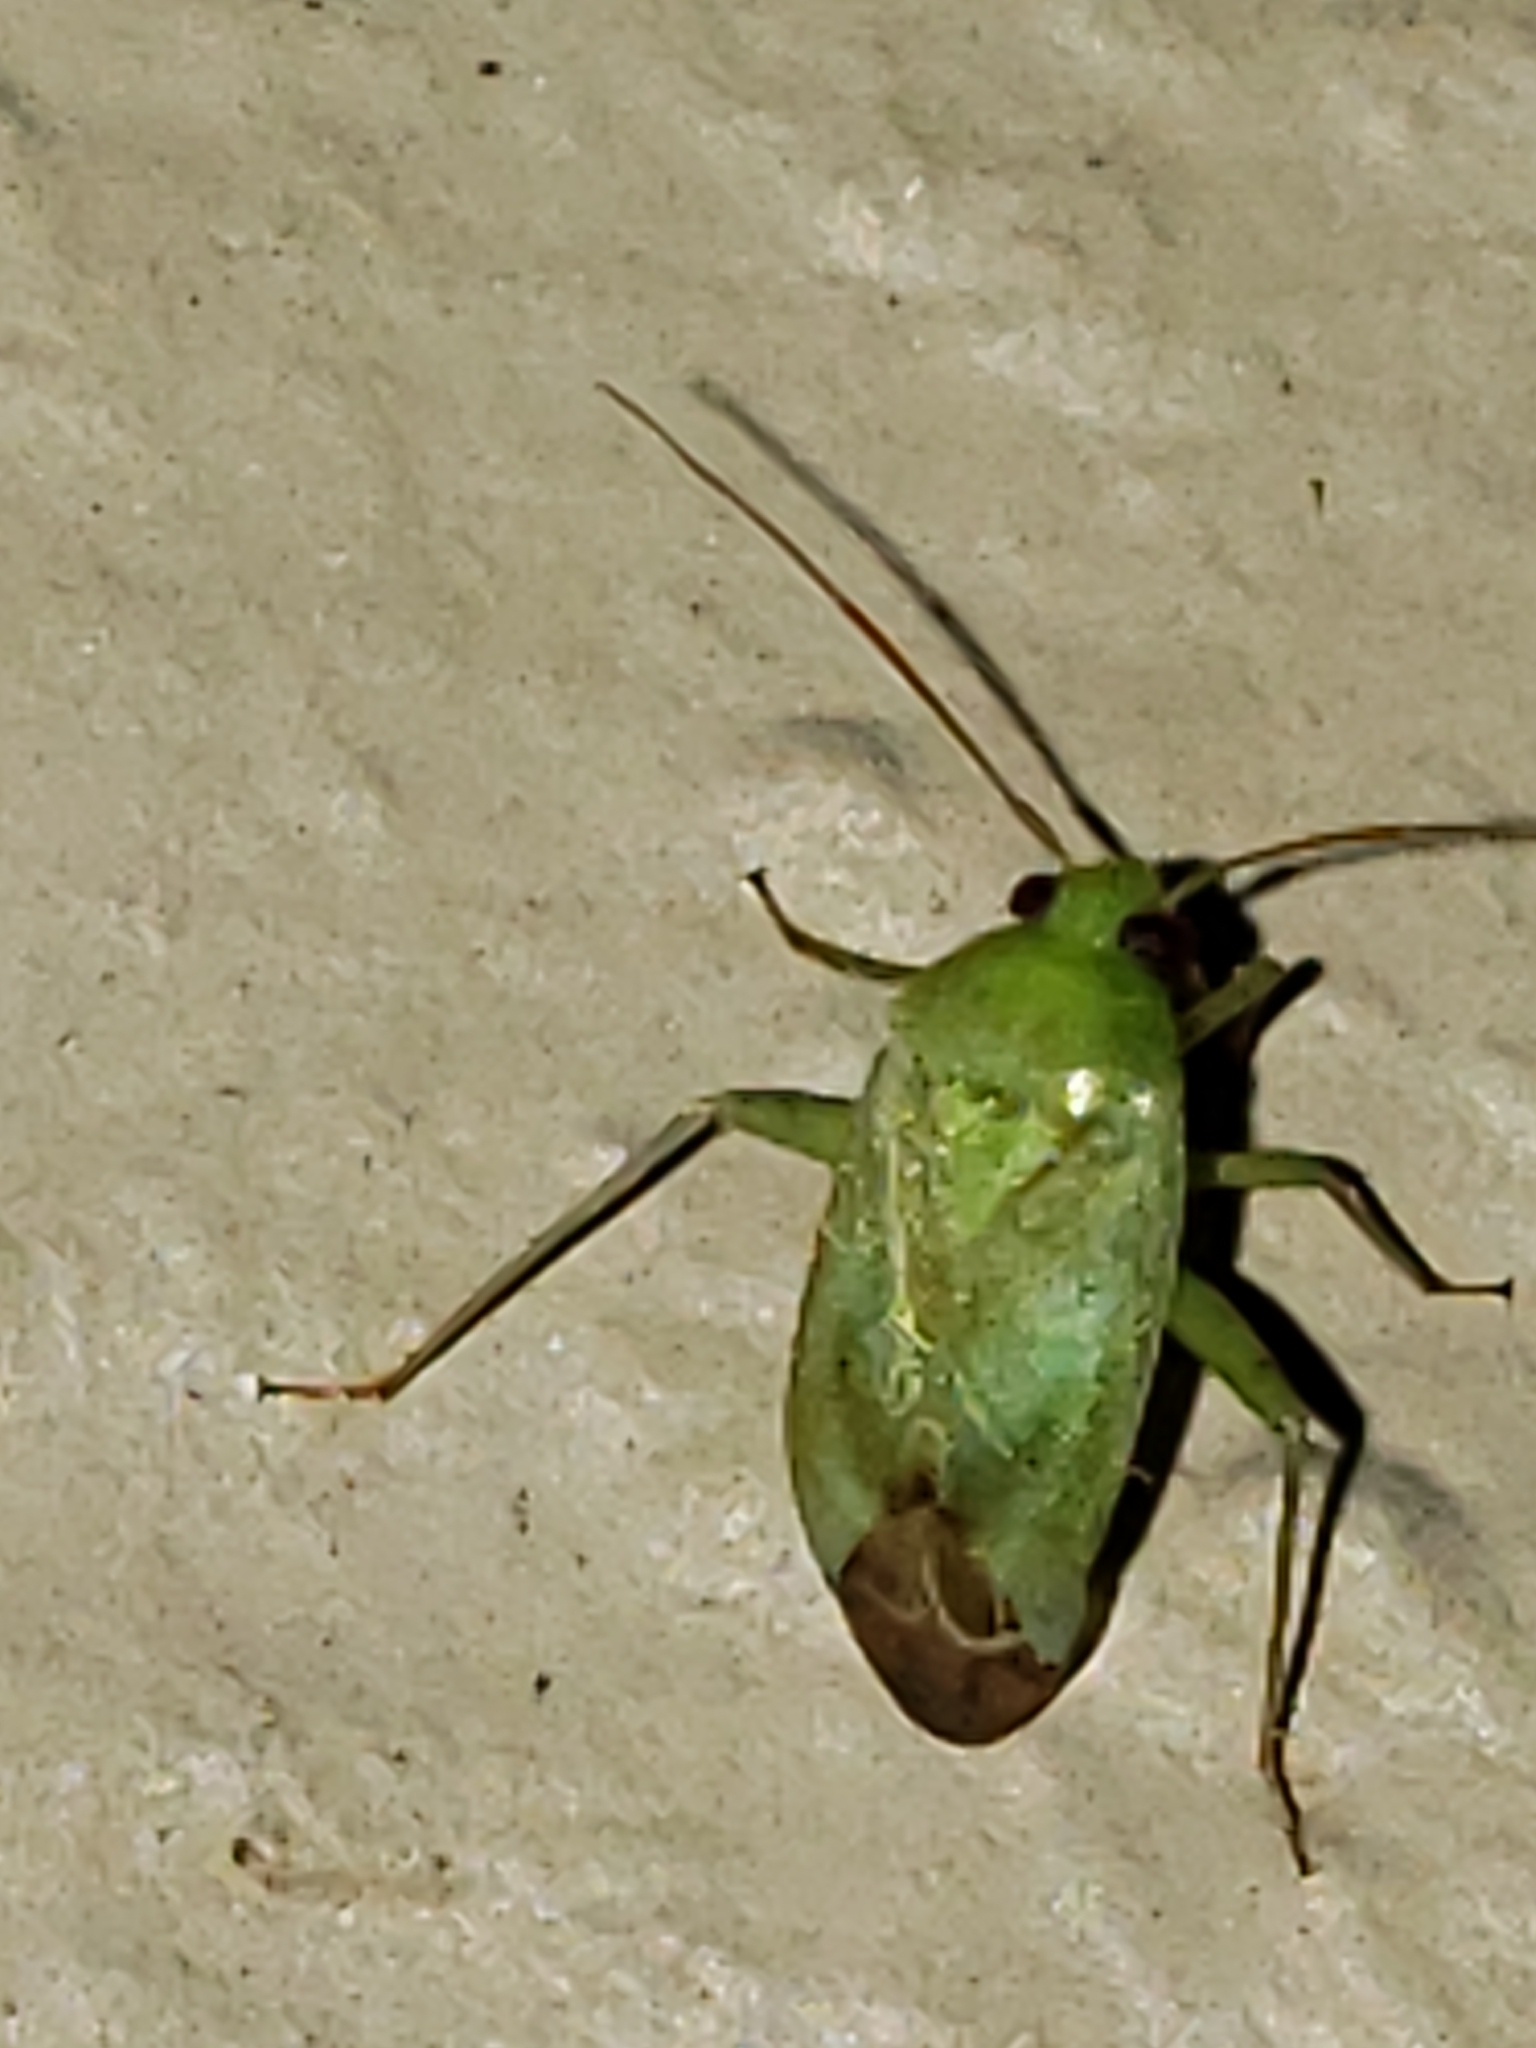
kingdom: Animalia
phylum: Arthropoda
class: Insecta
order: Hemiptera
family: Miridae
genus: Taylorilygus
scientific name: Taylorilygus apicalis
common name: Plant bug
